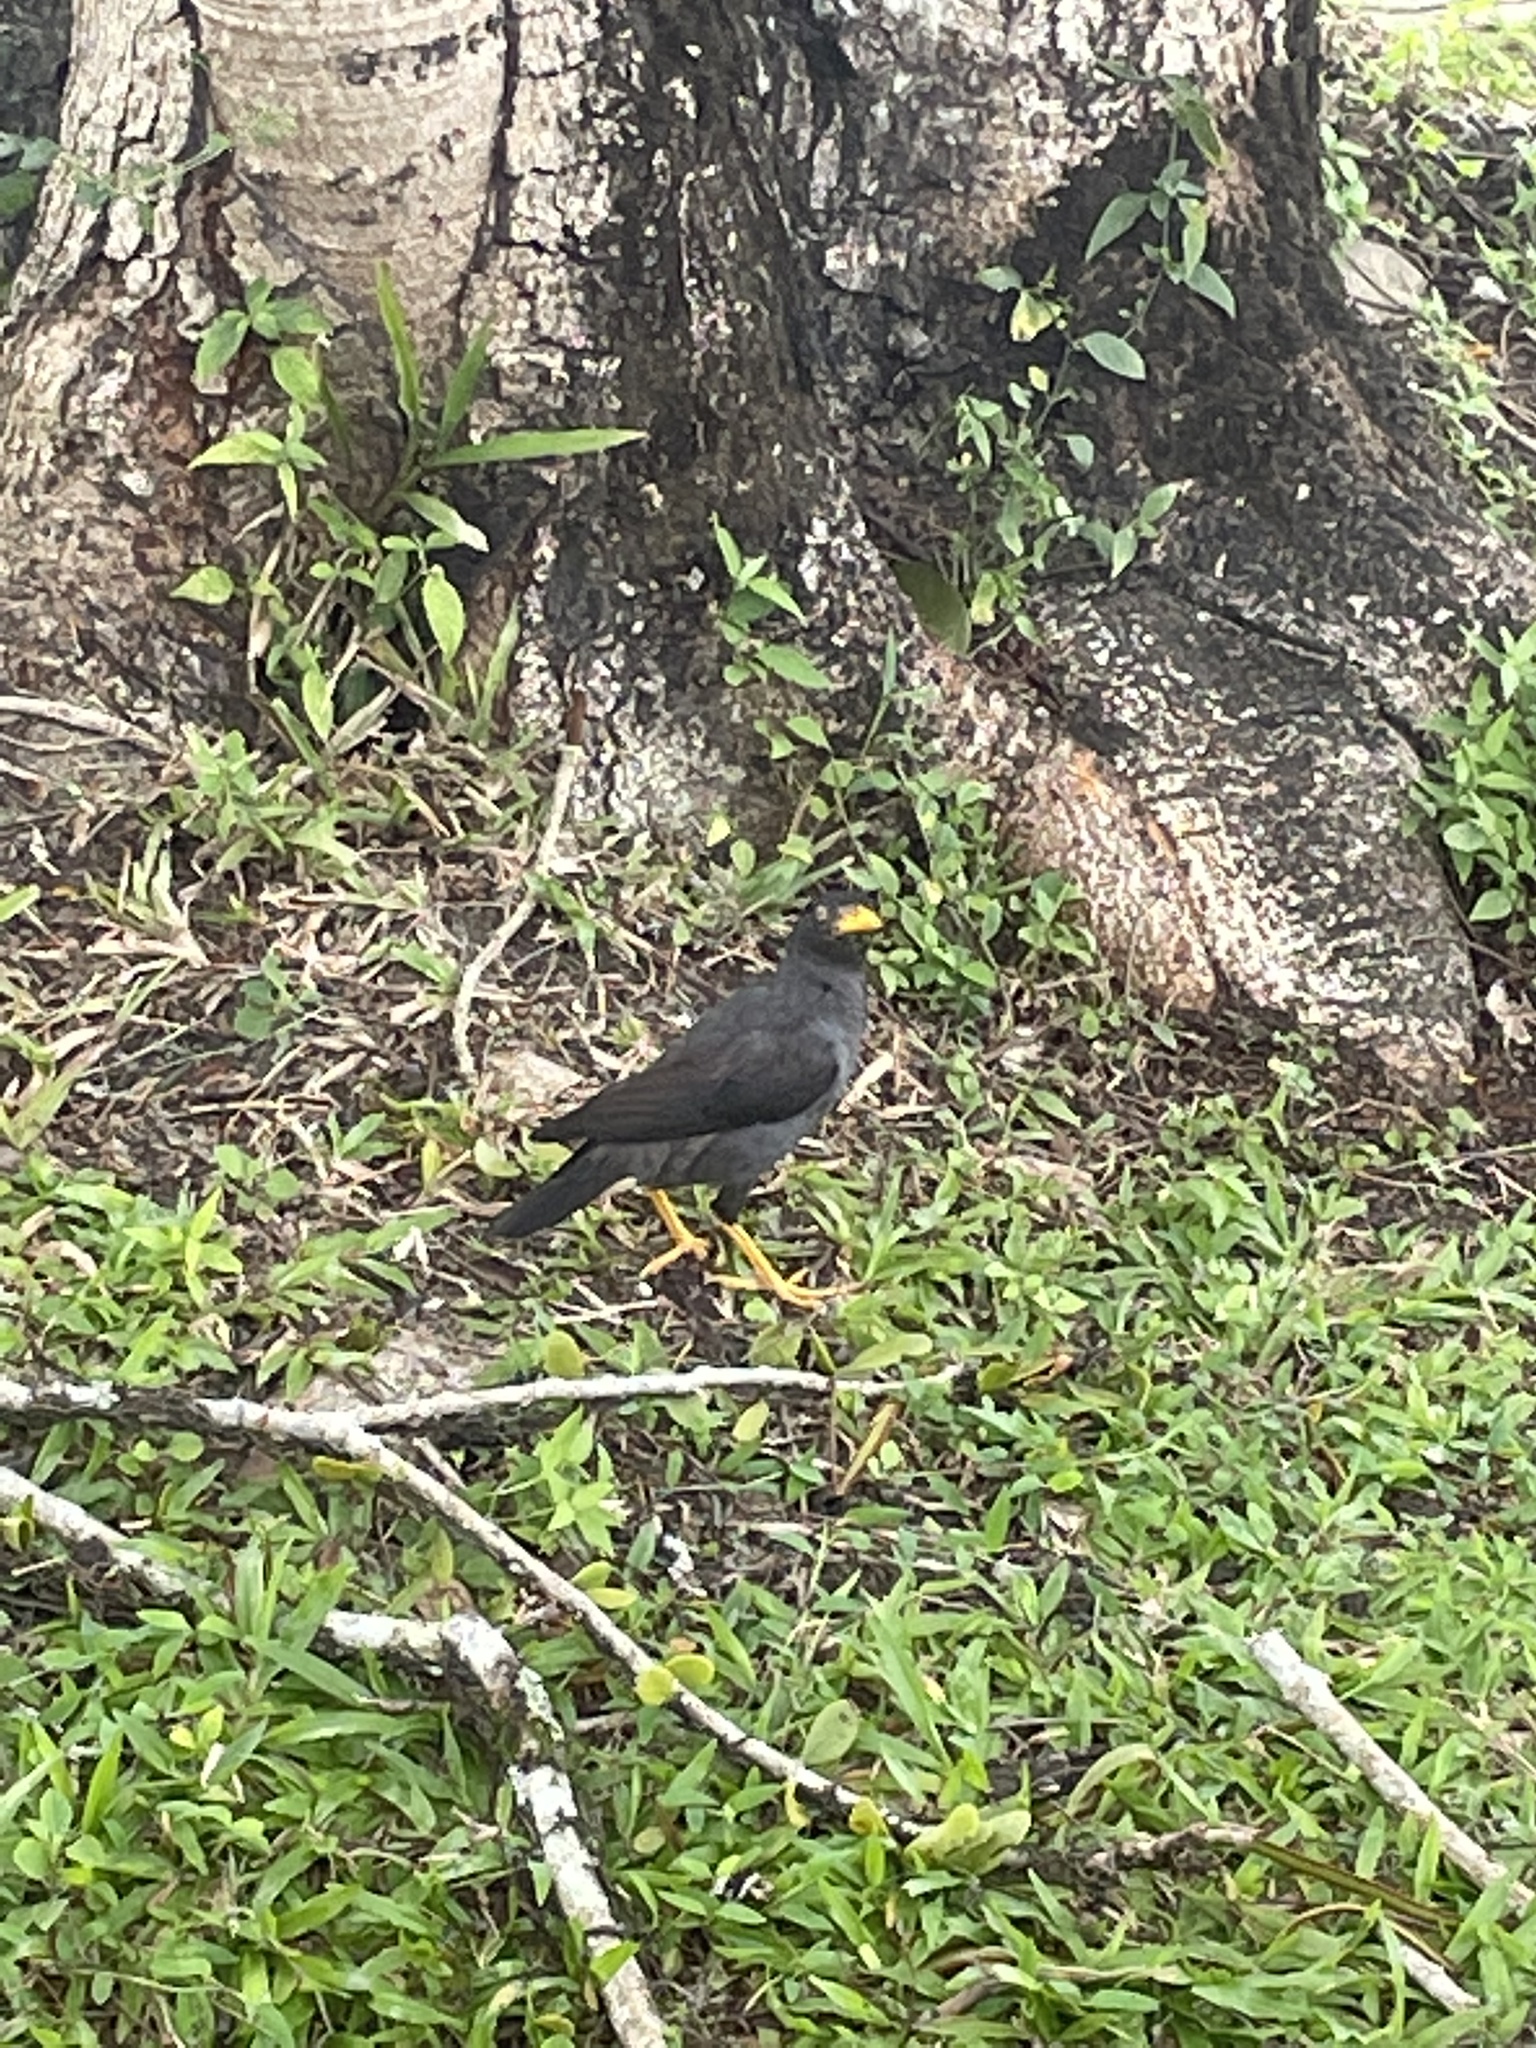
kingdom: Animalia
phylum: Chordata
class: Aves
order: Passeriformes
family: Sturnidae
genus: Acridotheres
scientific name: Acridotheres javanicus
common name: Javan myna
